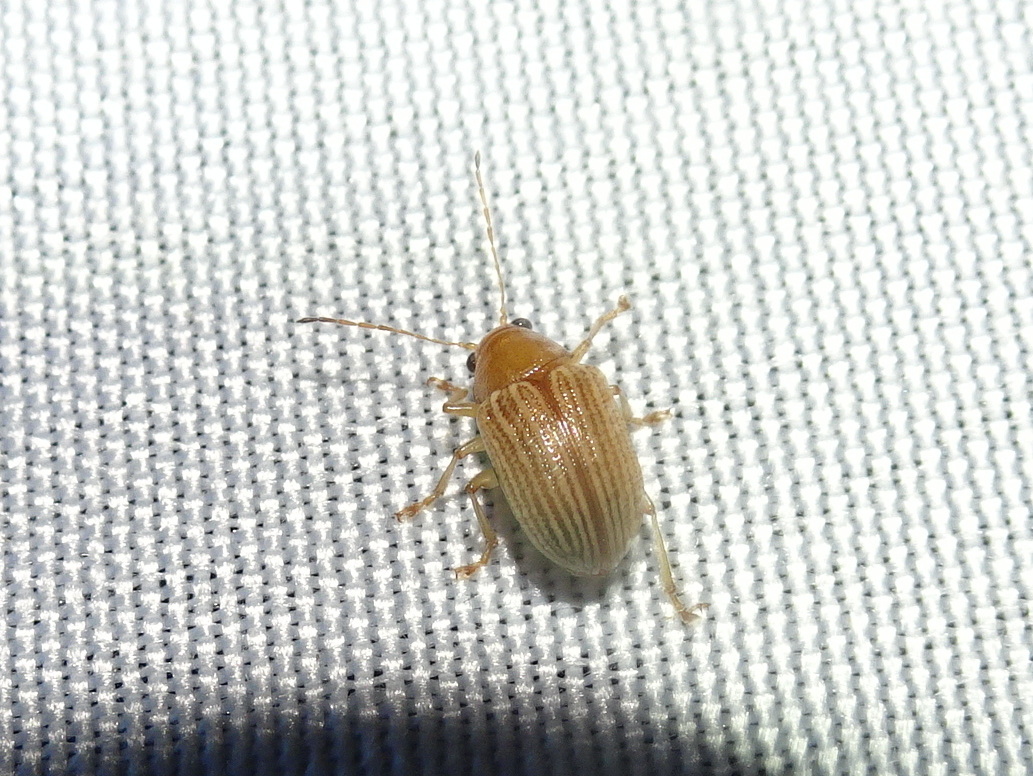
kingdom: Animalia
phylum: Arthropoda
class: Insecta
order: Coleoptera
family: Chrysomelidae
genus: Colaspis
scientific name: Colaspis brunnea
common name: Grape colaspis
